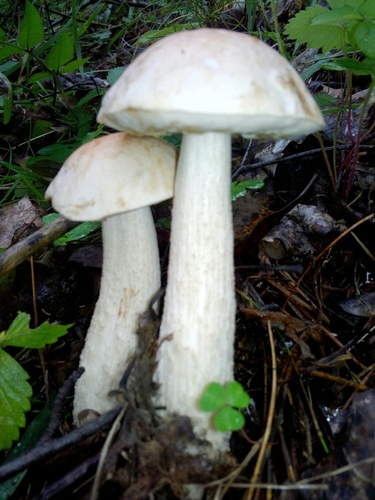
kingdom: Fungi
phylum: Basidiomycota
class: Agaricomycetes
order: Boletales
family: Boletaceae
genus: Leccinum
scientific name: Leccinum
